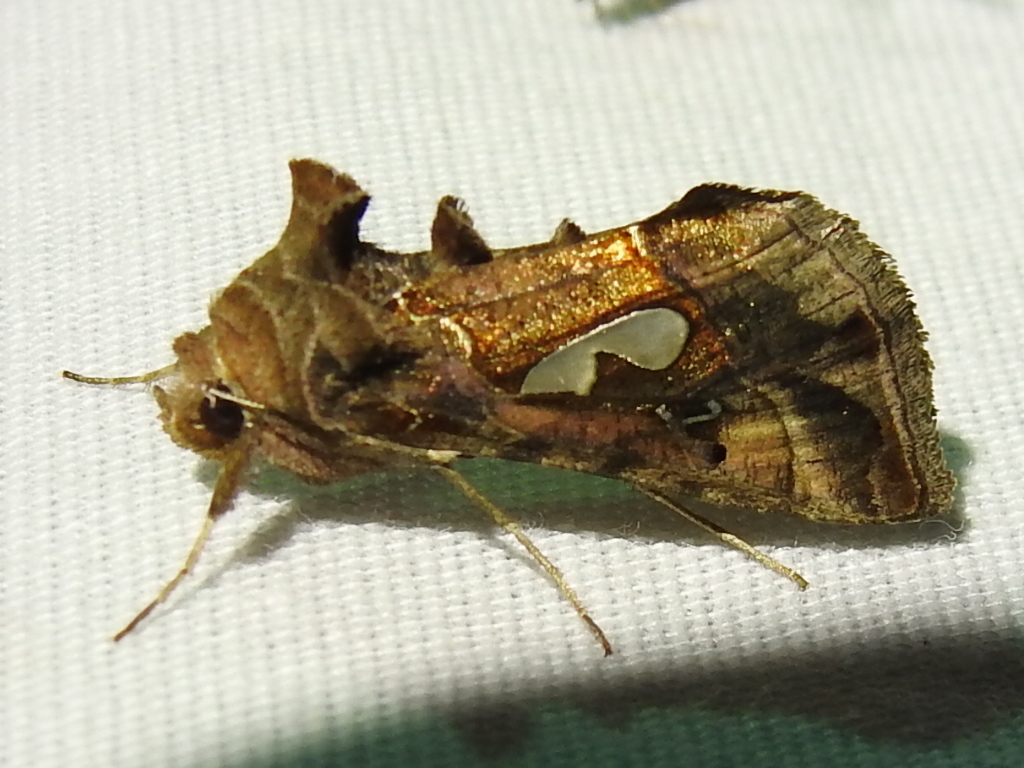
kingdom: Animalia
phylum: Arthropoda
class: Insecta
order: Lepidoptera
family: Noctuidae
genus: Megalographa
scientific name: Megalographa biloba
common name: Cutworm
